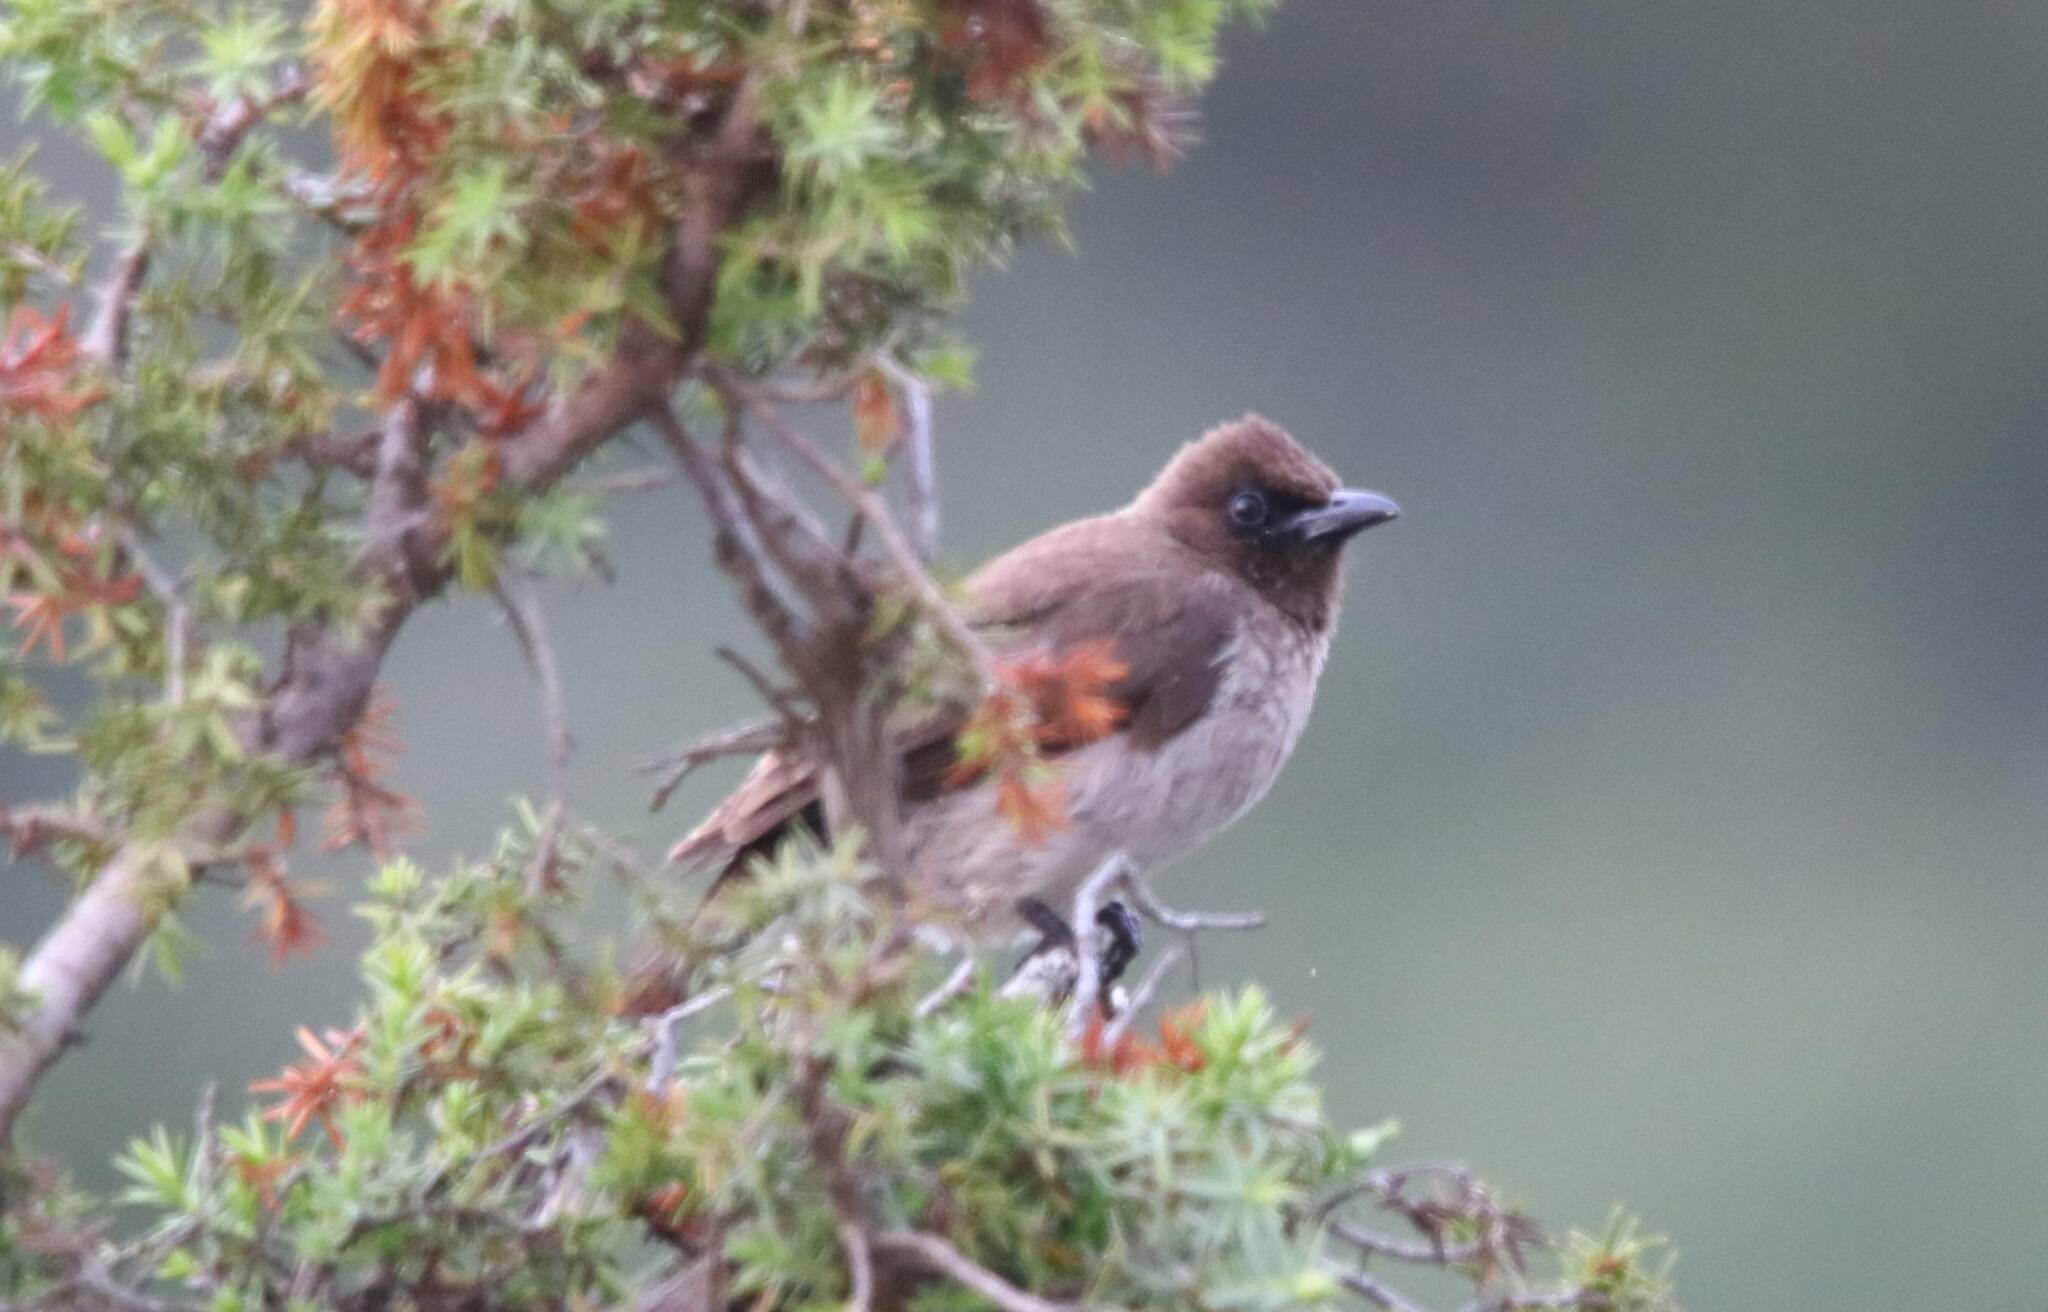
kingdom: Animalia
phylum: Chordata
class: Aves
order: Passeriformes
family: Pycnonotidae
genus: Pycnonotus
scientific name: Pycnonotus barbatus
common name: Common bulbul
